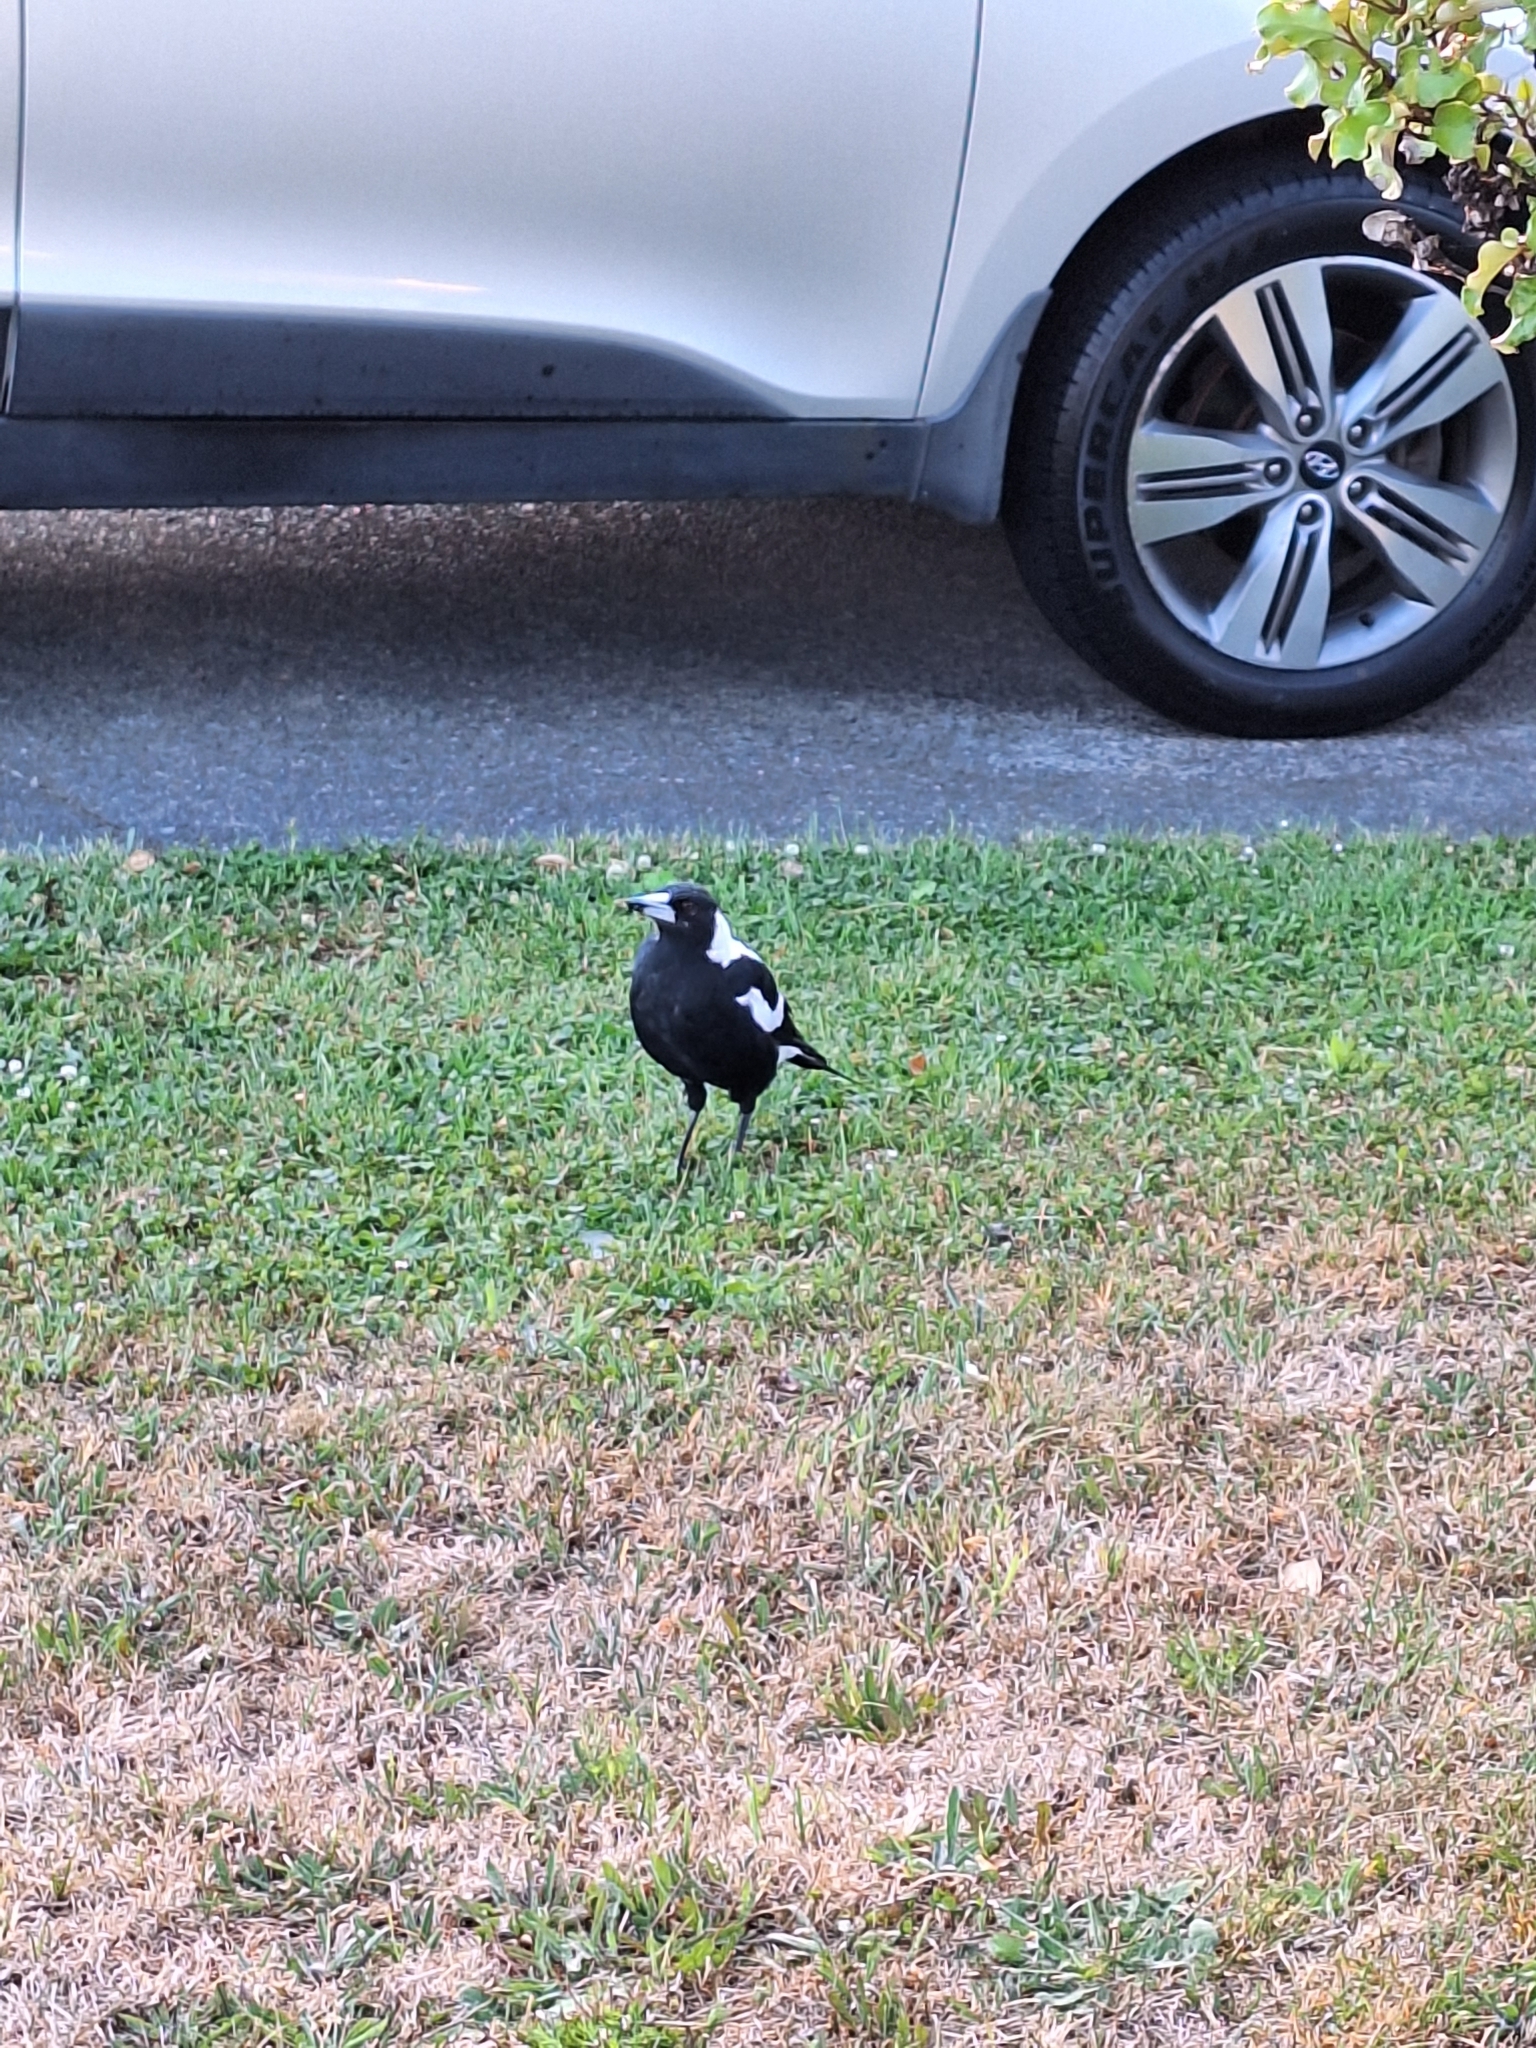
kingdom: Animalia
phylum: Chordata
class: Aves
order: Passeriformes
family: Cracticidae
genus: Gymnorhina
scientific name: Gymnorhina tibicen
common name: Australian magpie
